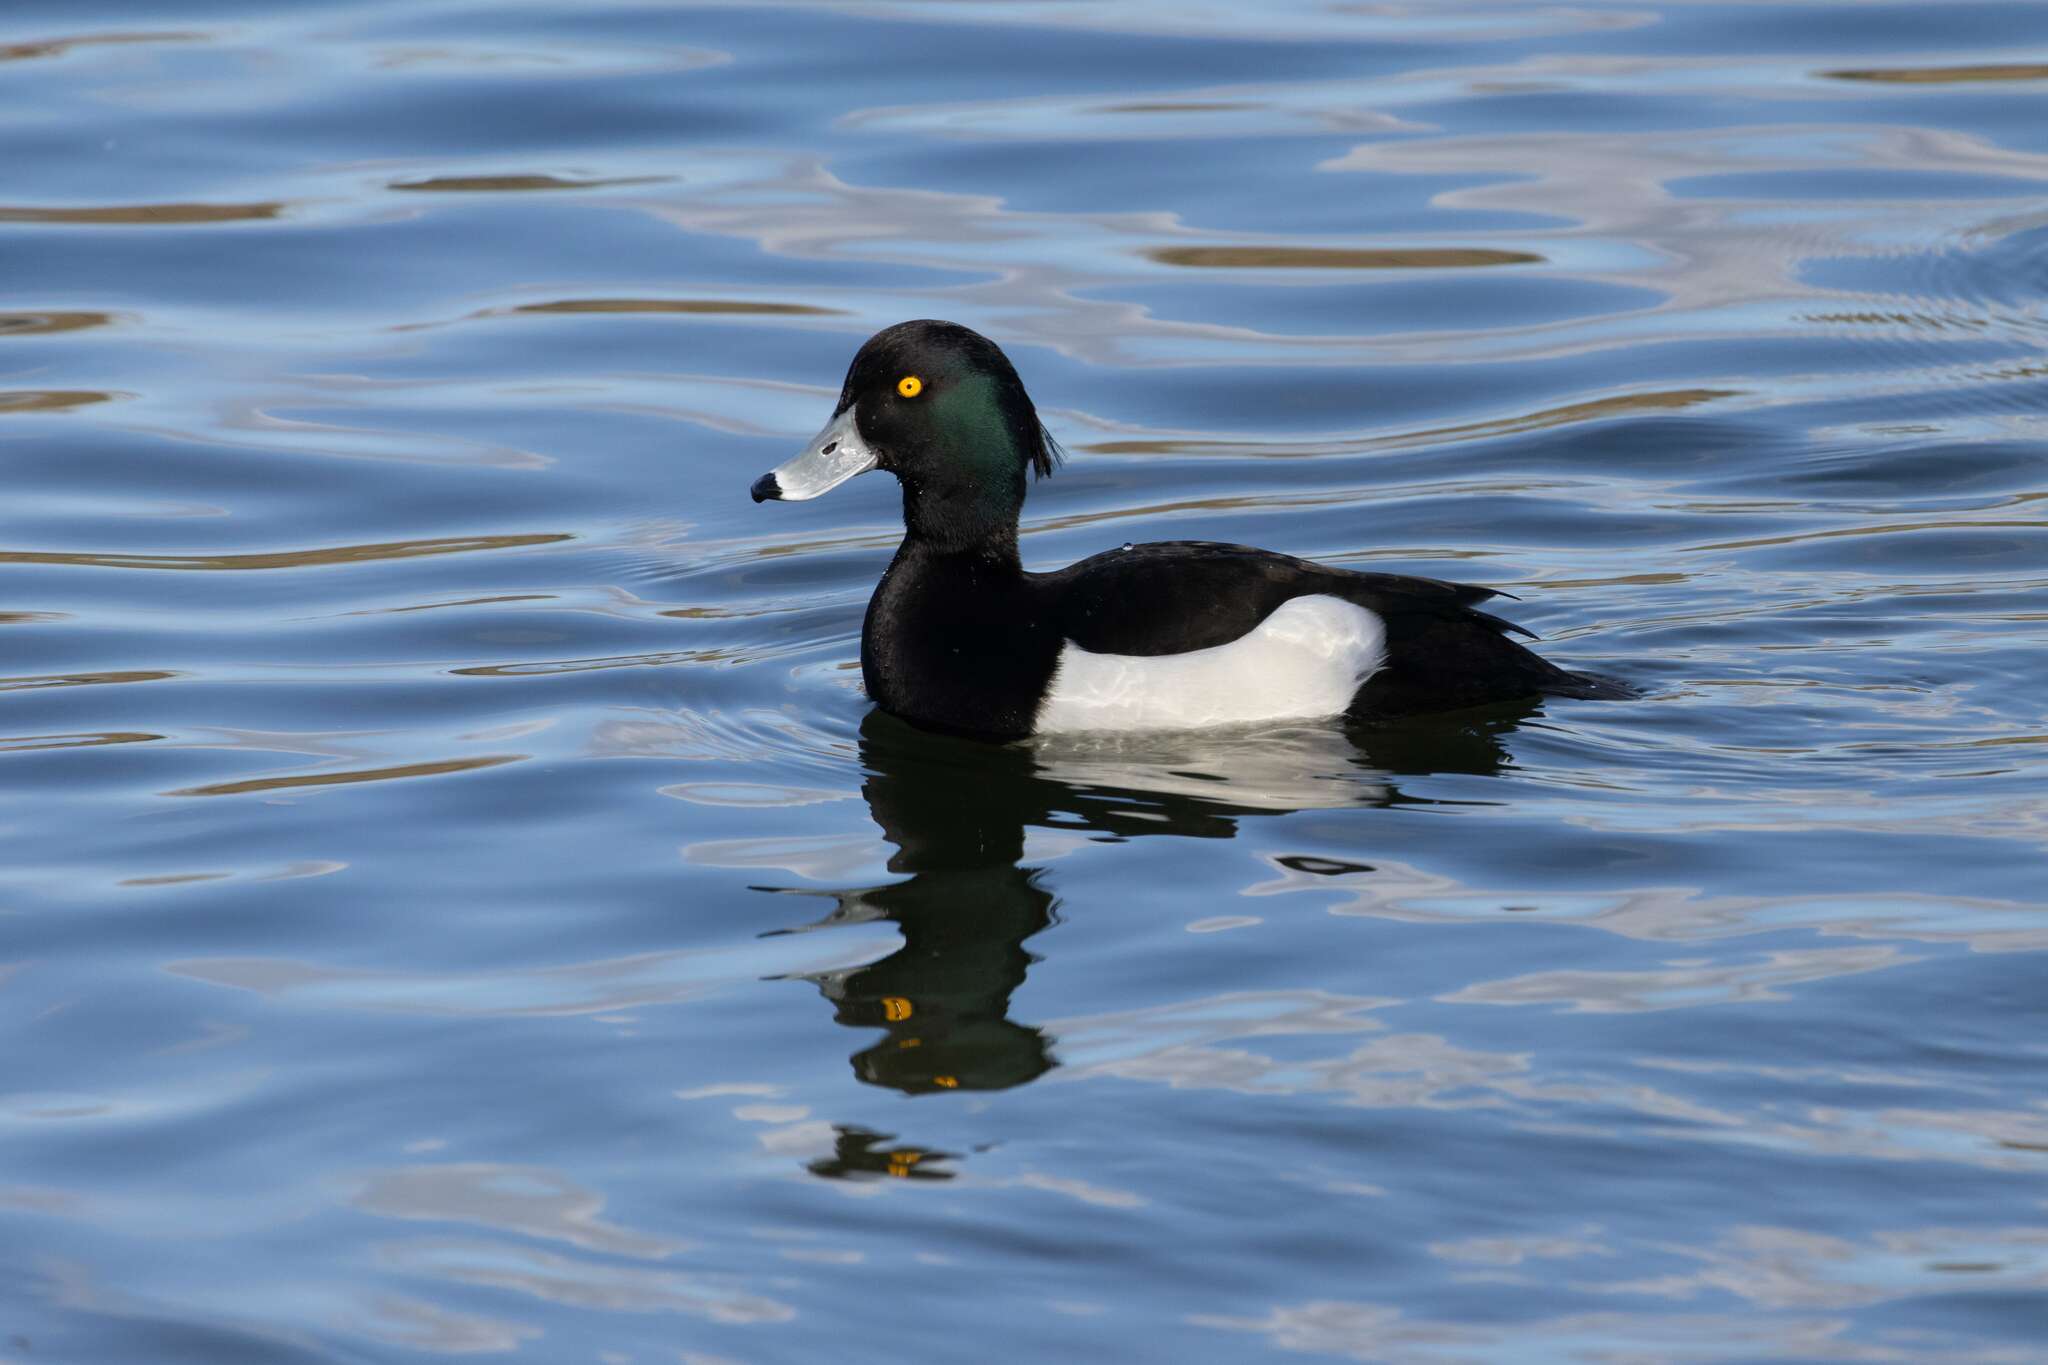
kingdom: Animalia
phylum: Chordata
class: Aves
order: Anseriformes
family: Anatidae
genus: Aythya
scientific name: Aythya fuligula
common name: Tufted duck
